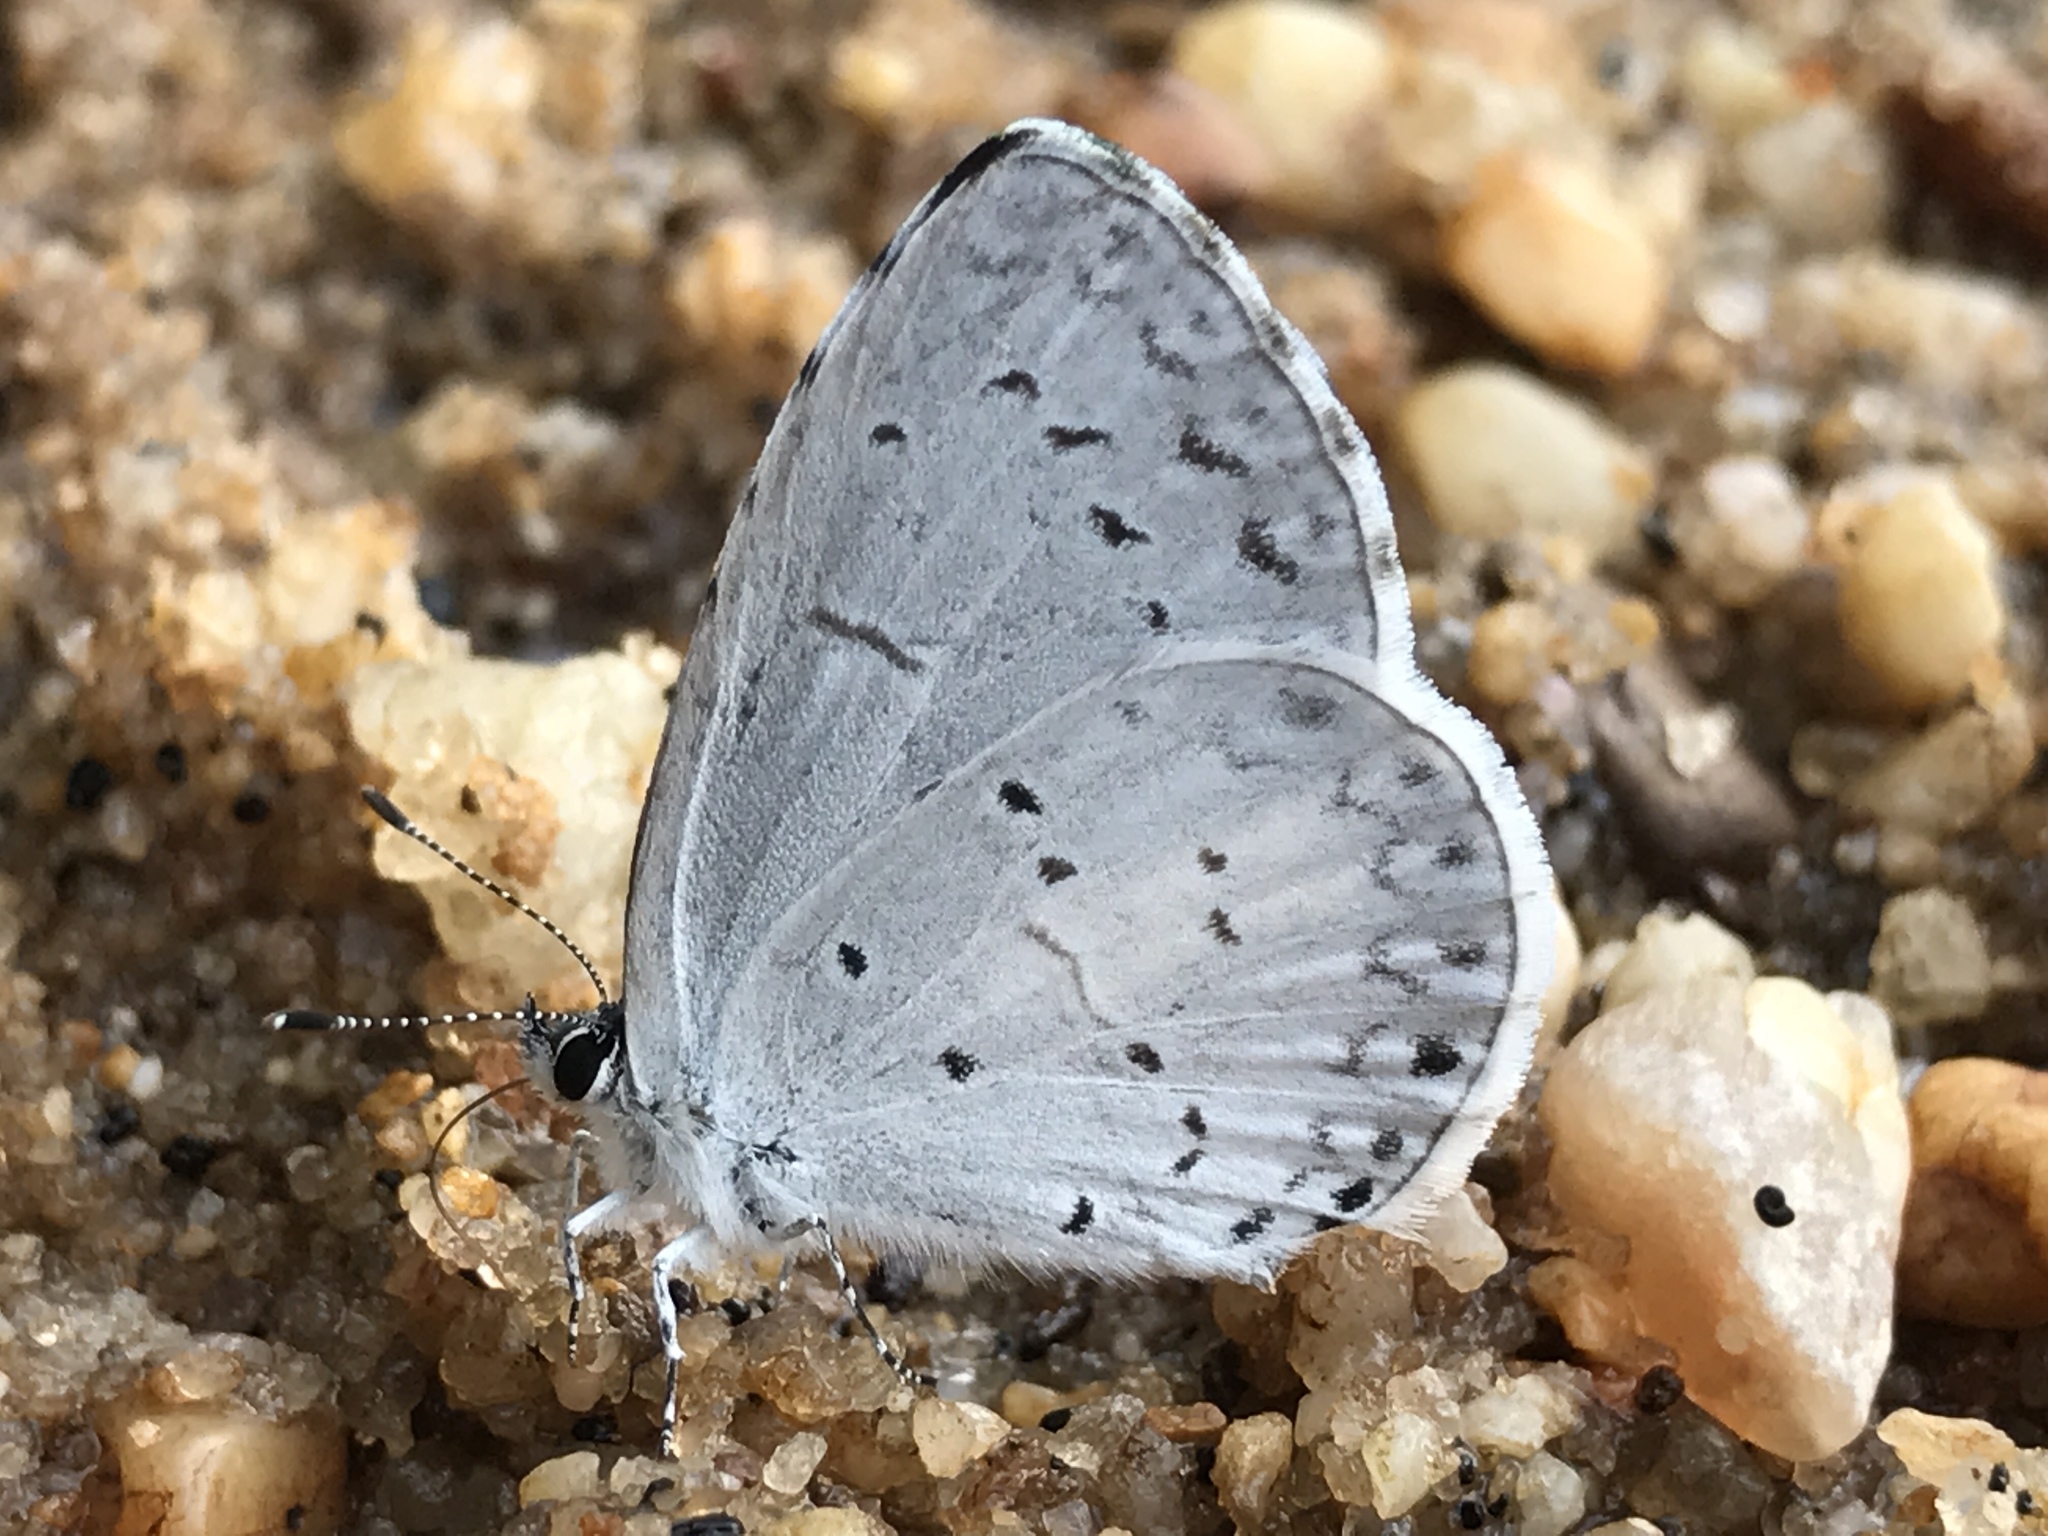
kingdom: Animalia
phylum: Arthropoda
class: Insecta
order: Lepidoptera
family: Lycaenidae
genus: Cyaniris
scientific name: Cyaniris neglecta
